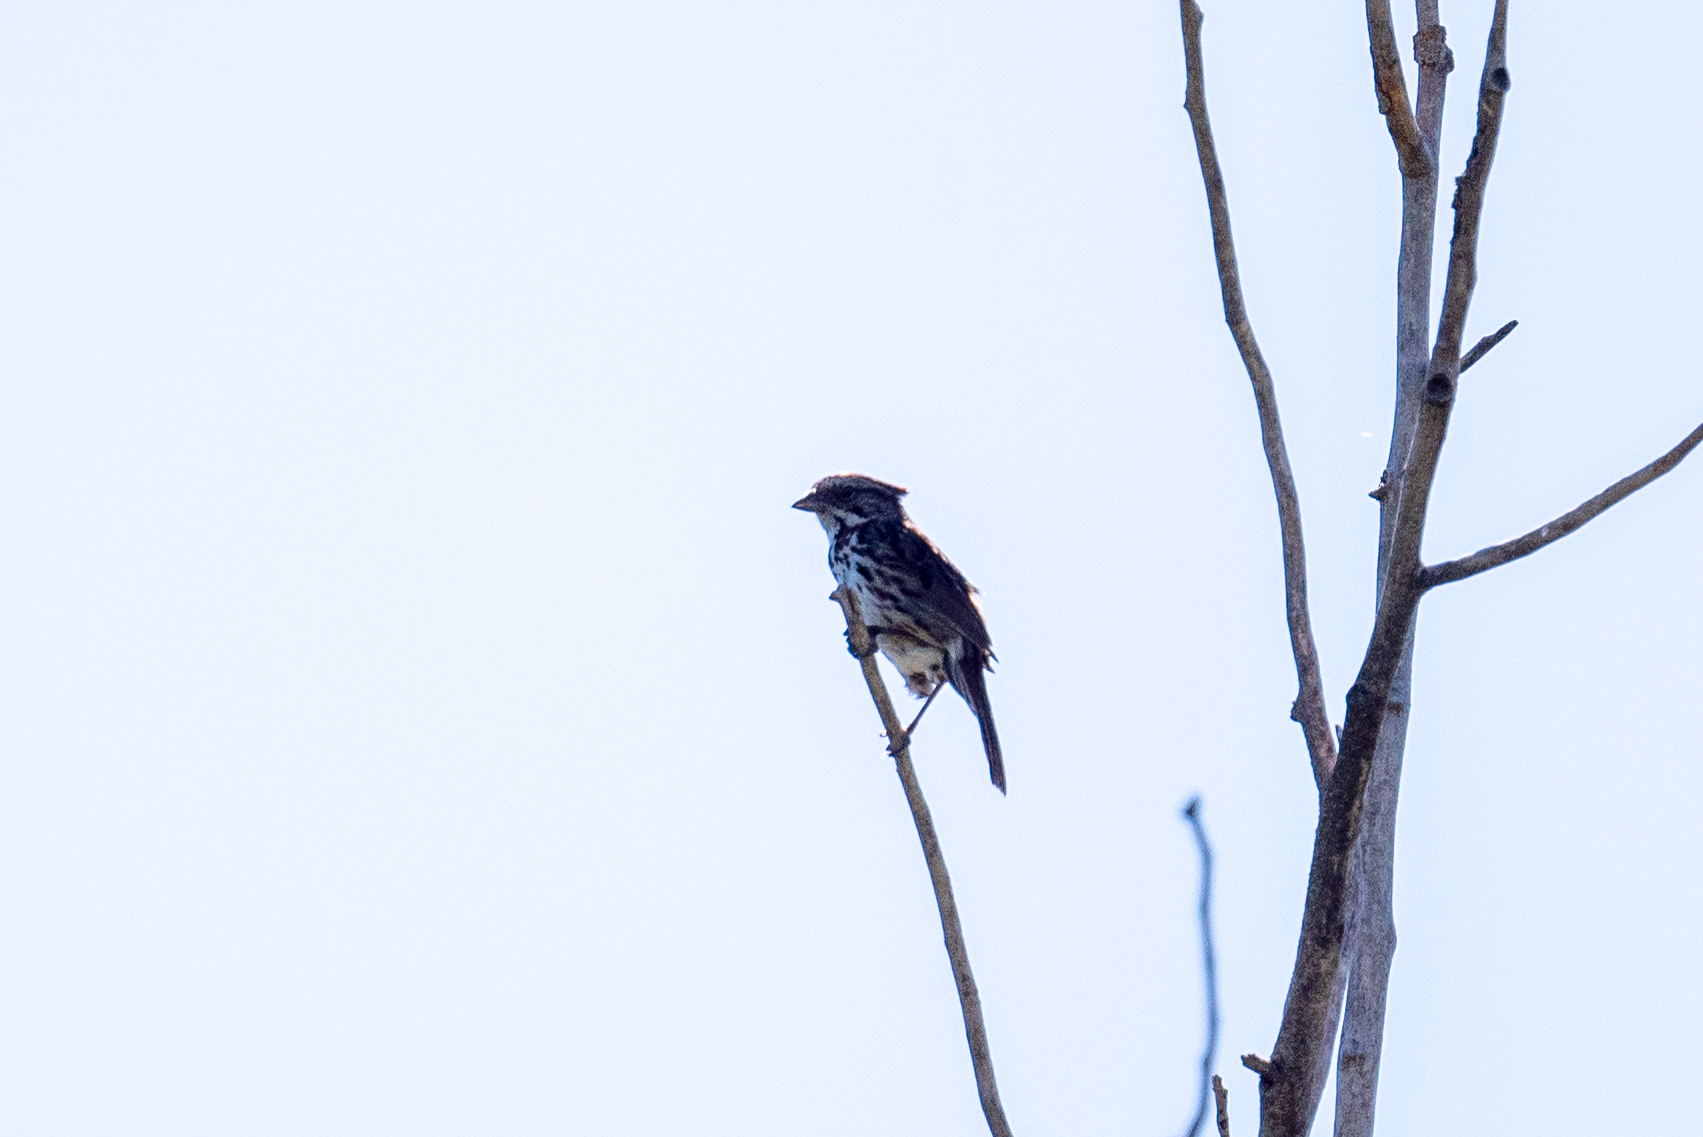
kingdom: Animalia
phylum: Chordata
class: Aves
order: Passeriformes
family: Passerellidae
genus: Melospiza
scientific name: Melospiza melodia
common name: Song sparrow
